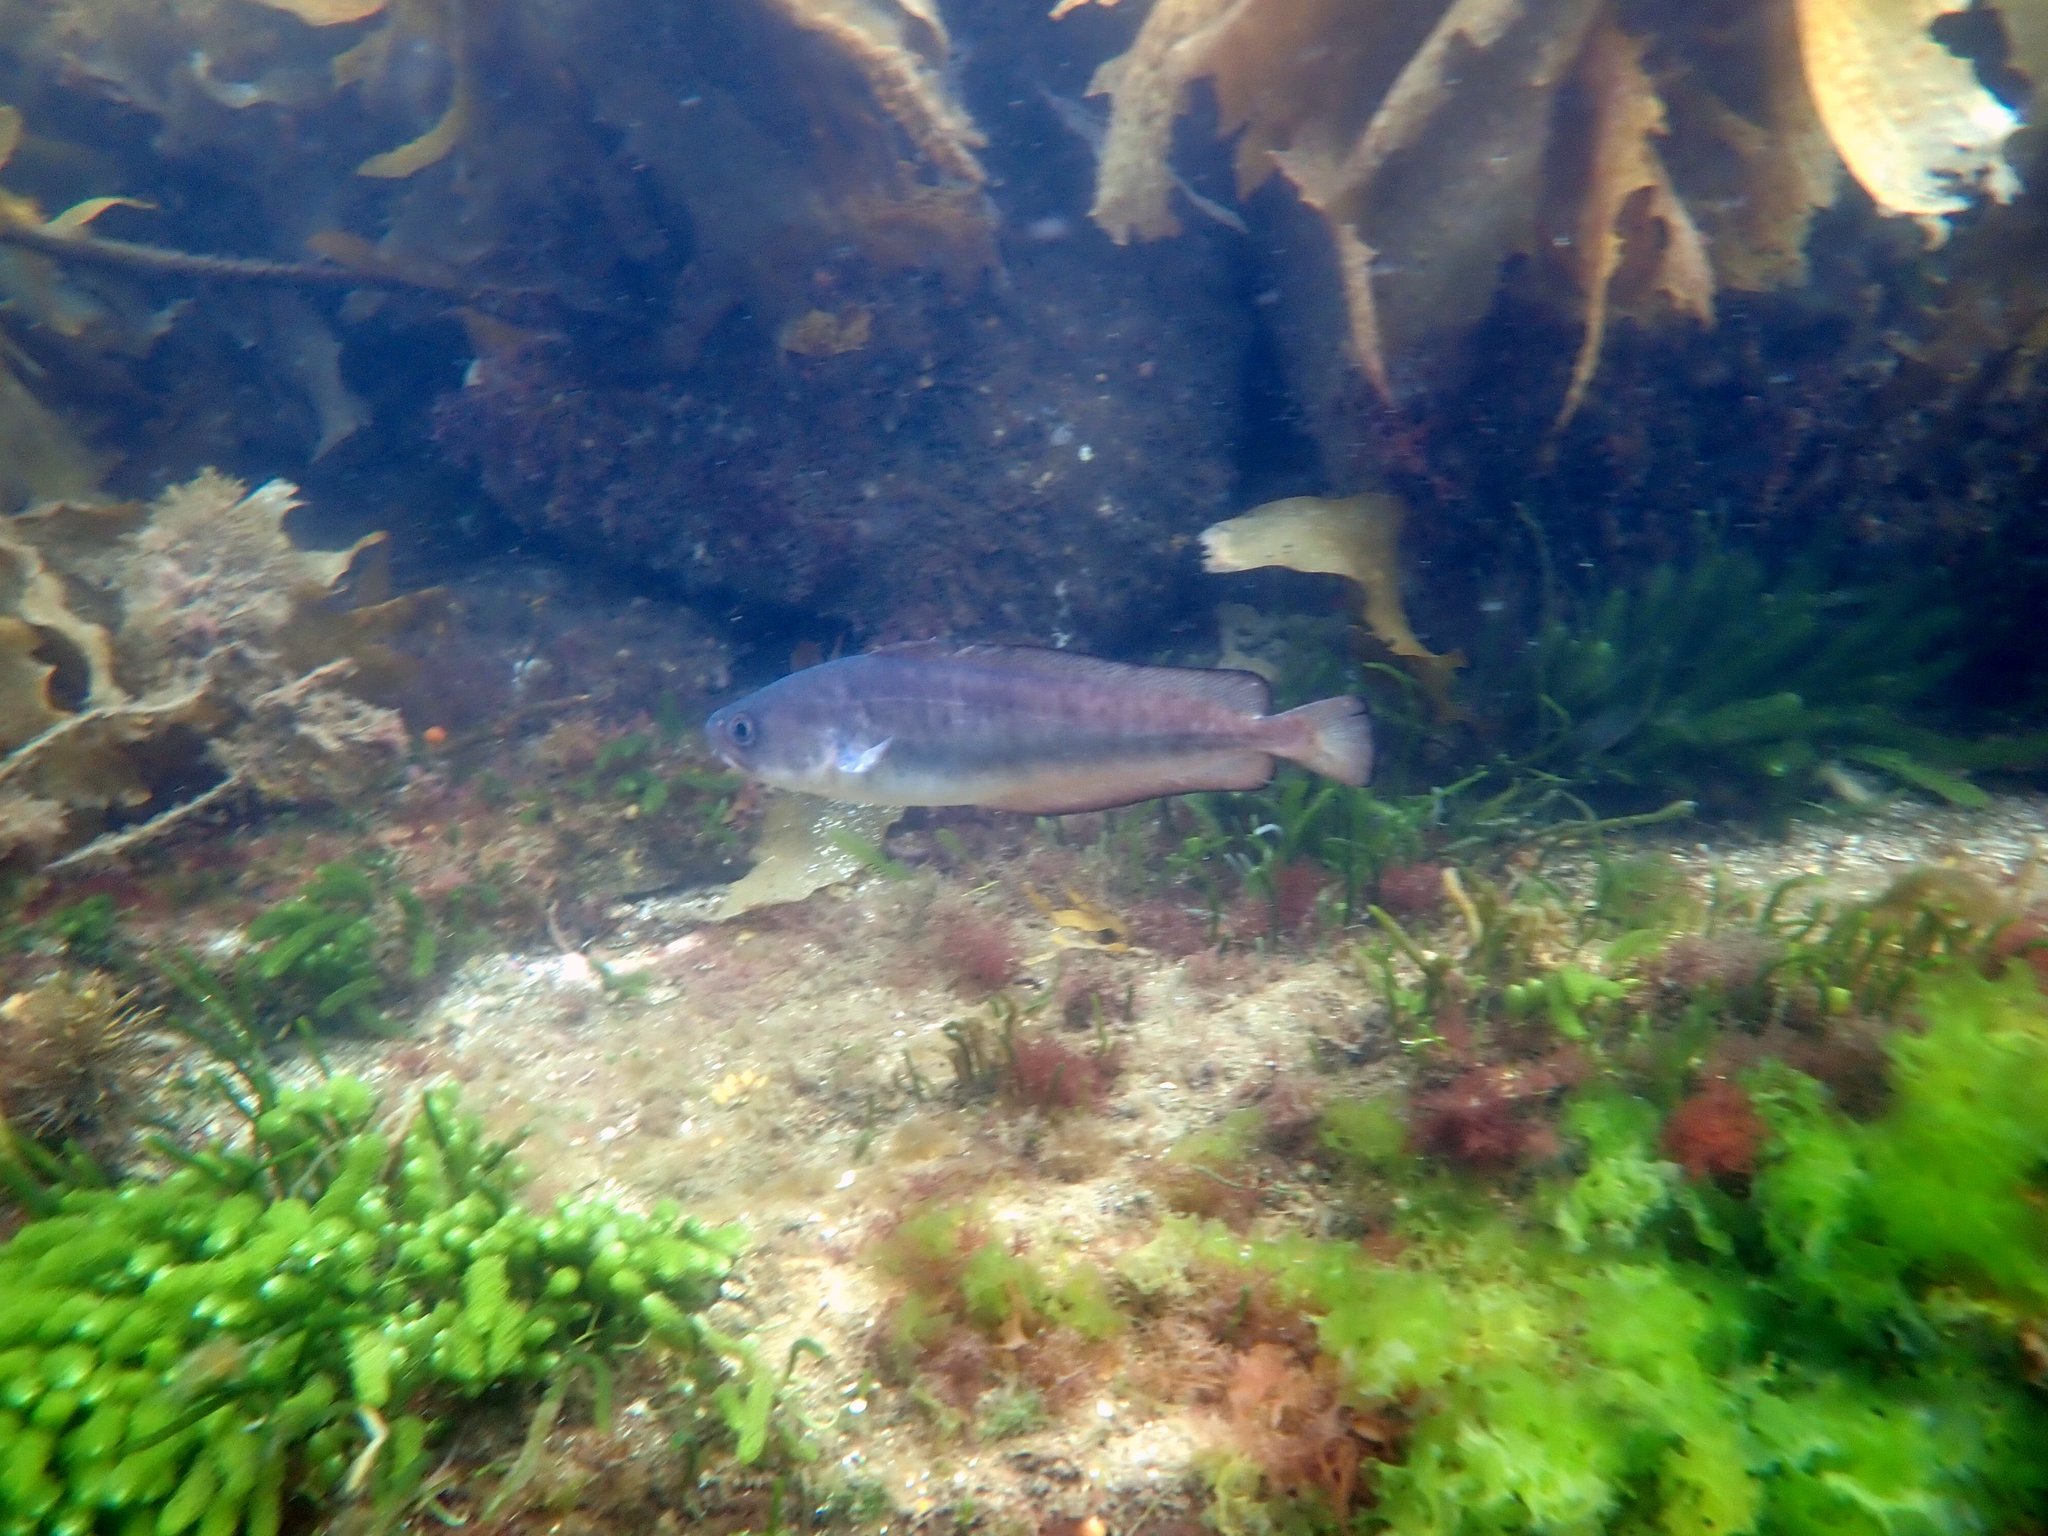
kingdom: Animalia
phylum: Chordata
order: Gadiformes
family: Moridae
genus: Pseudophycis
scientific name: Pseudophycis palmata
